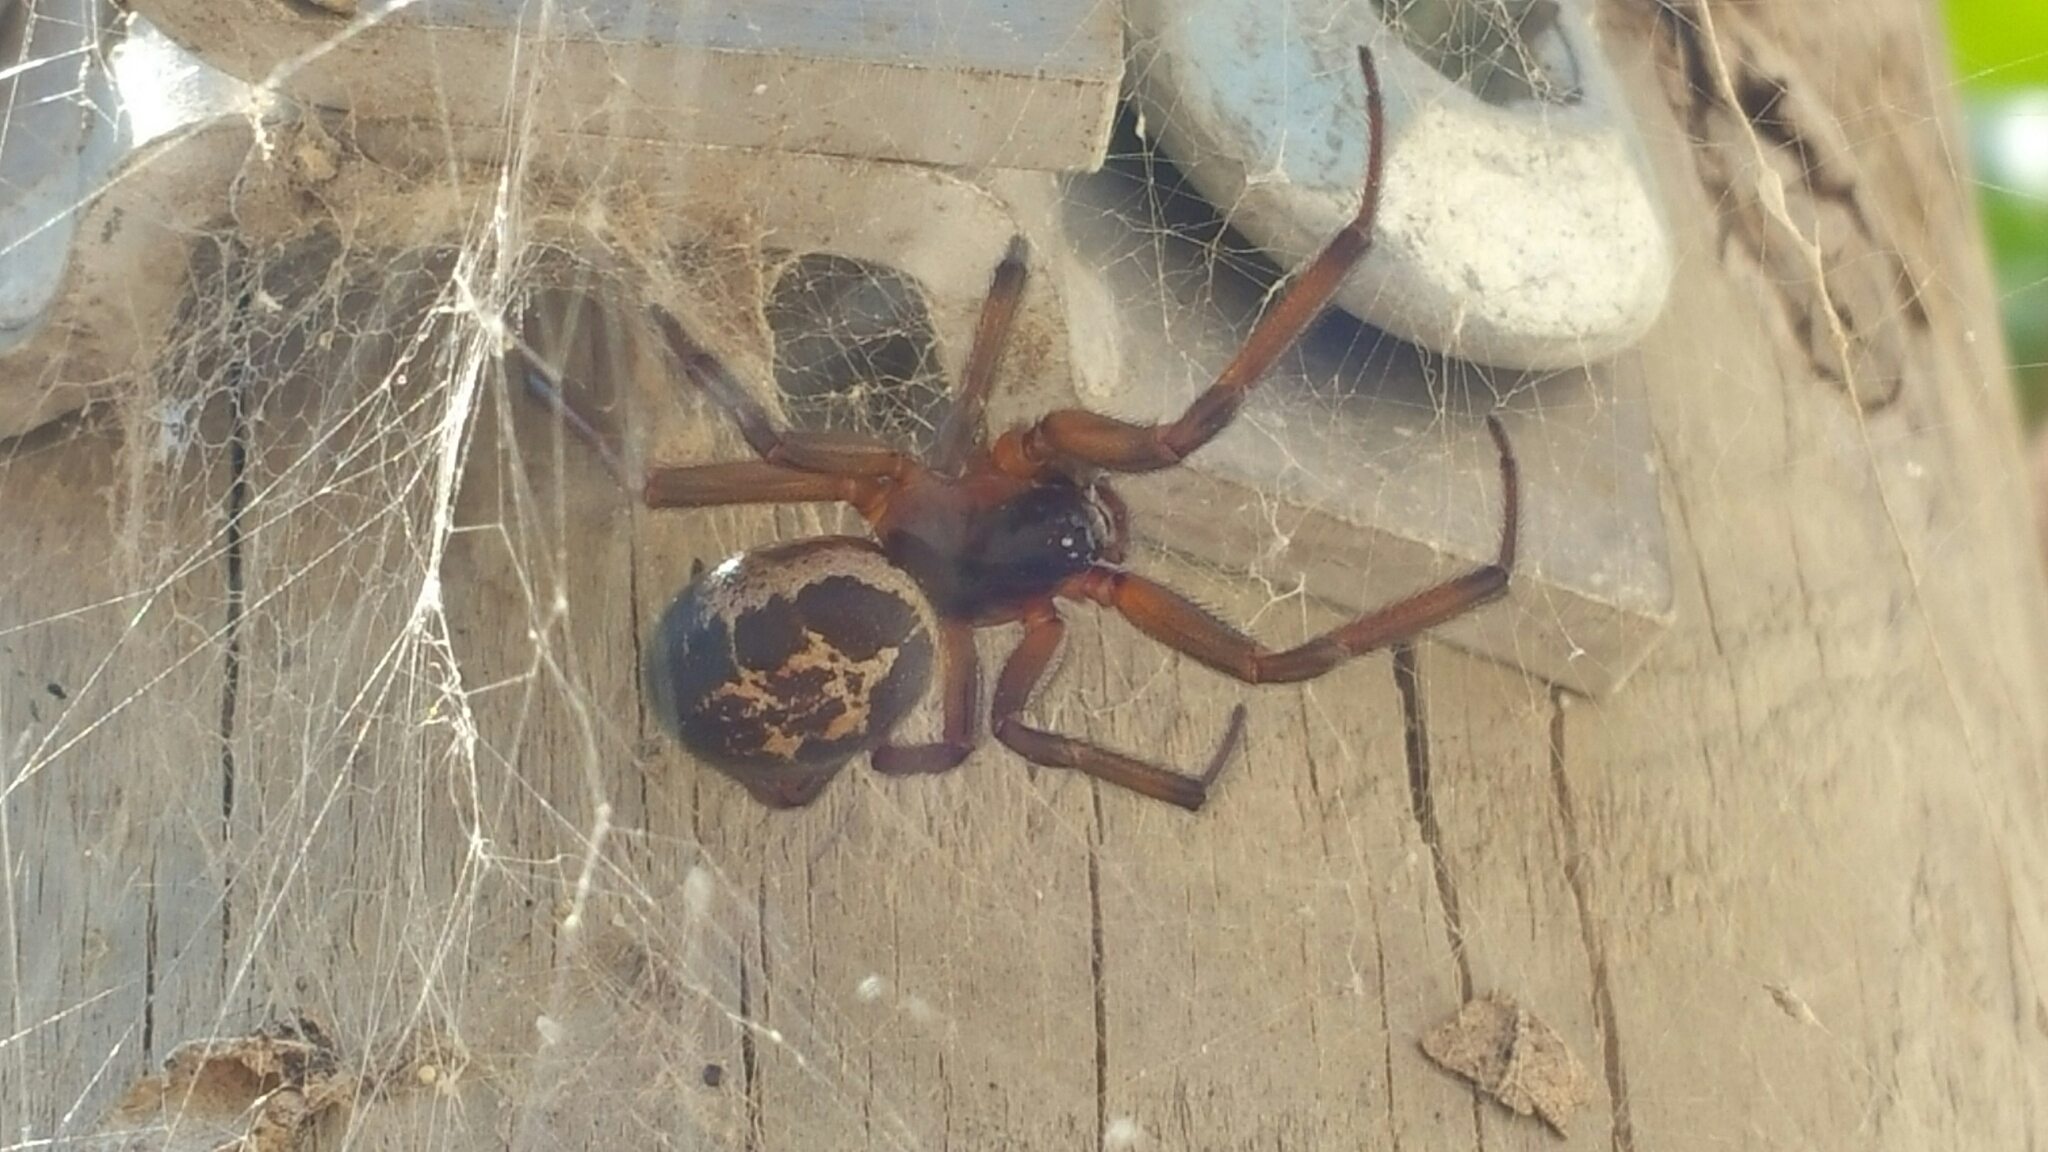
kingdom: Animalia
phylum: Arthropoda
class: Arachnida
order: Araneae
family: Theridiidae
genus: Steatoda
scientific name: Steatoda nobilis
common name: Cobweb weaver
